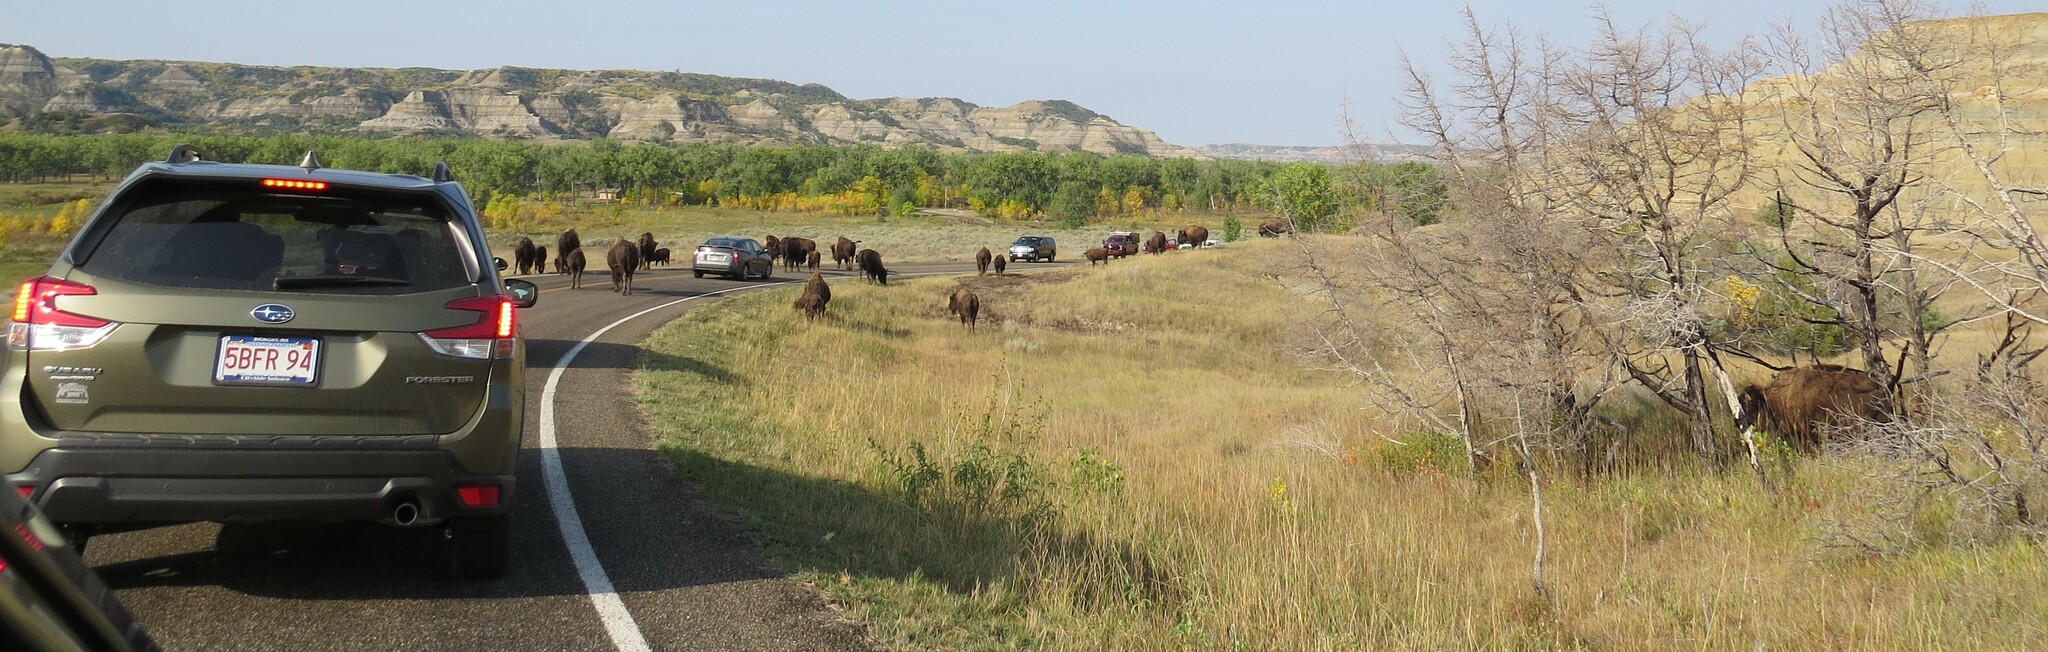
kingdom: Animalia
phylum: Chordata
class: Mammalia
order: Artiodactyla
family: Bovidae
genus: Bison
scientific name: Bison bison
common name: American bison
